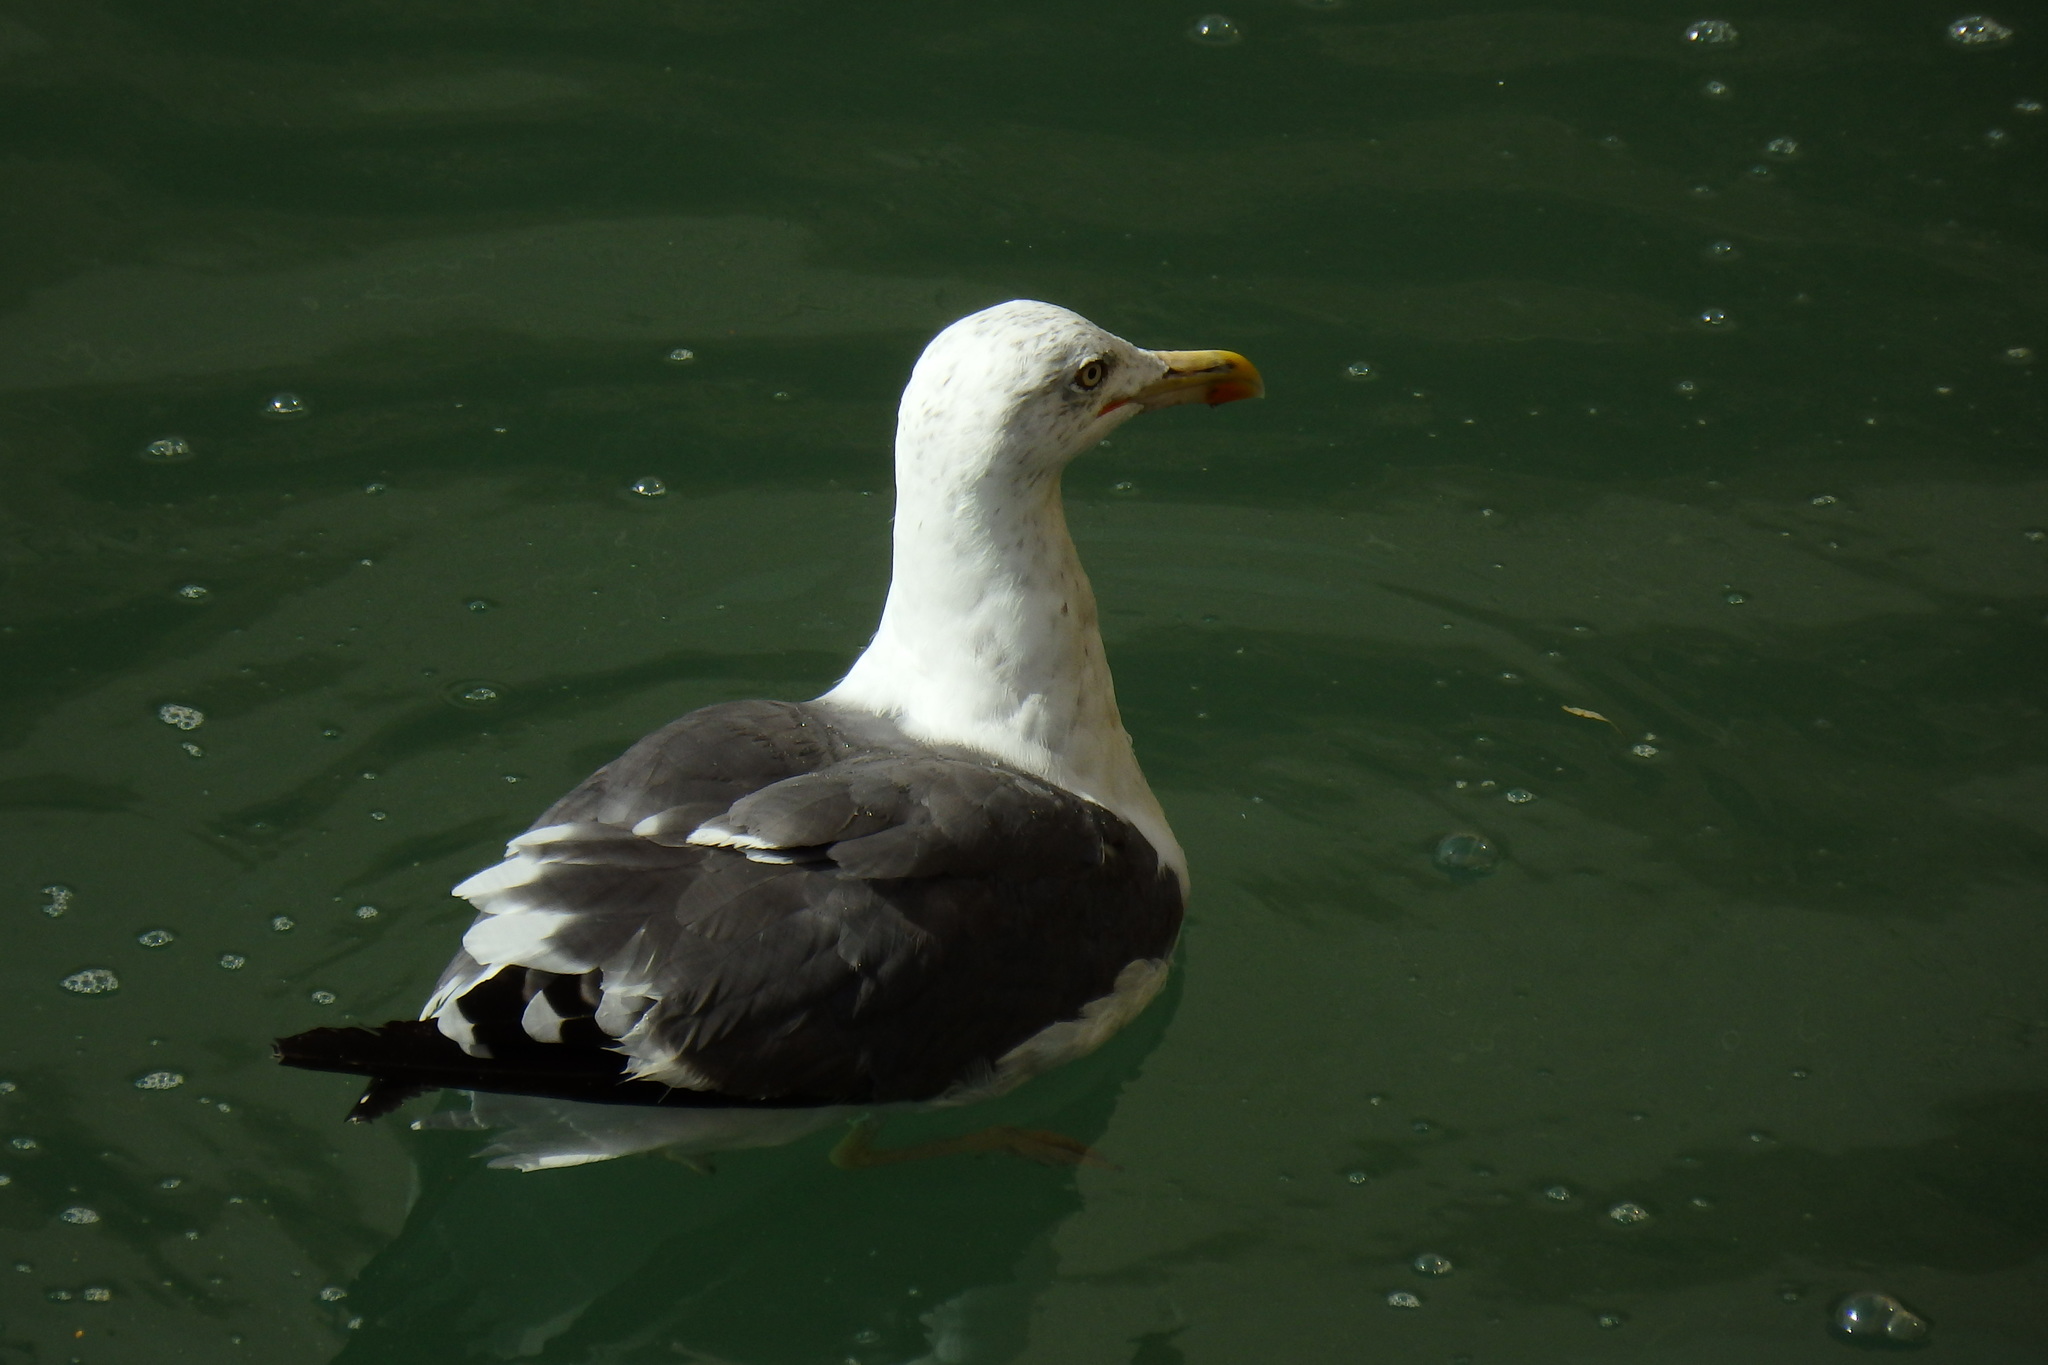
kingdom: Animalia
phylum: Chordata
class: Aves
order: Charadriiformes
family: Laridae
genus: Larus
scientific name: Larus fuscus
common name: Lesser black-backed gull
